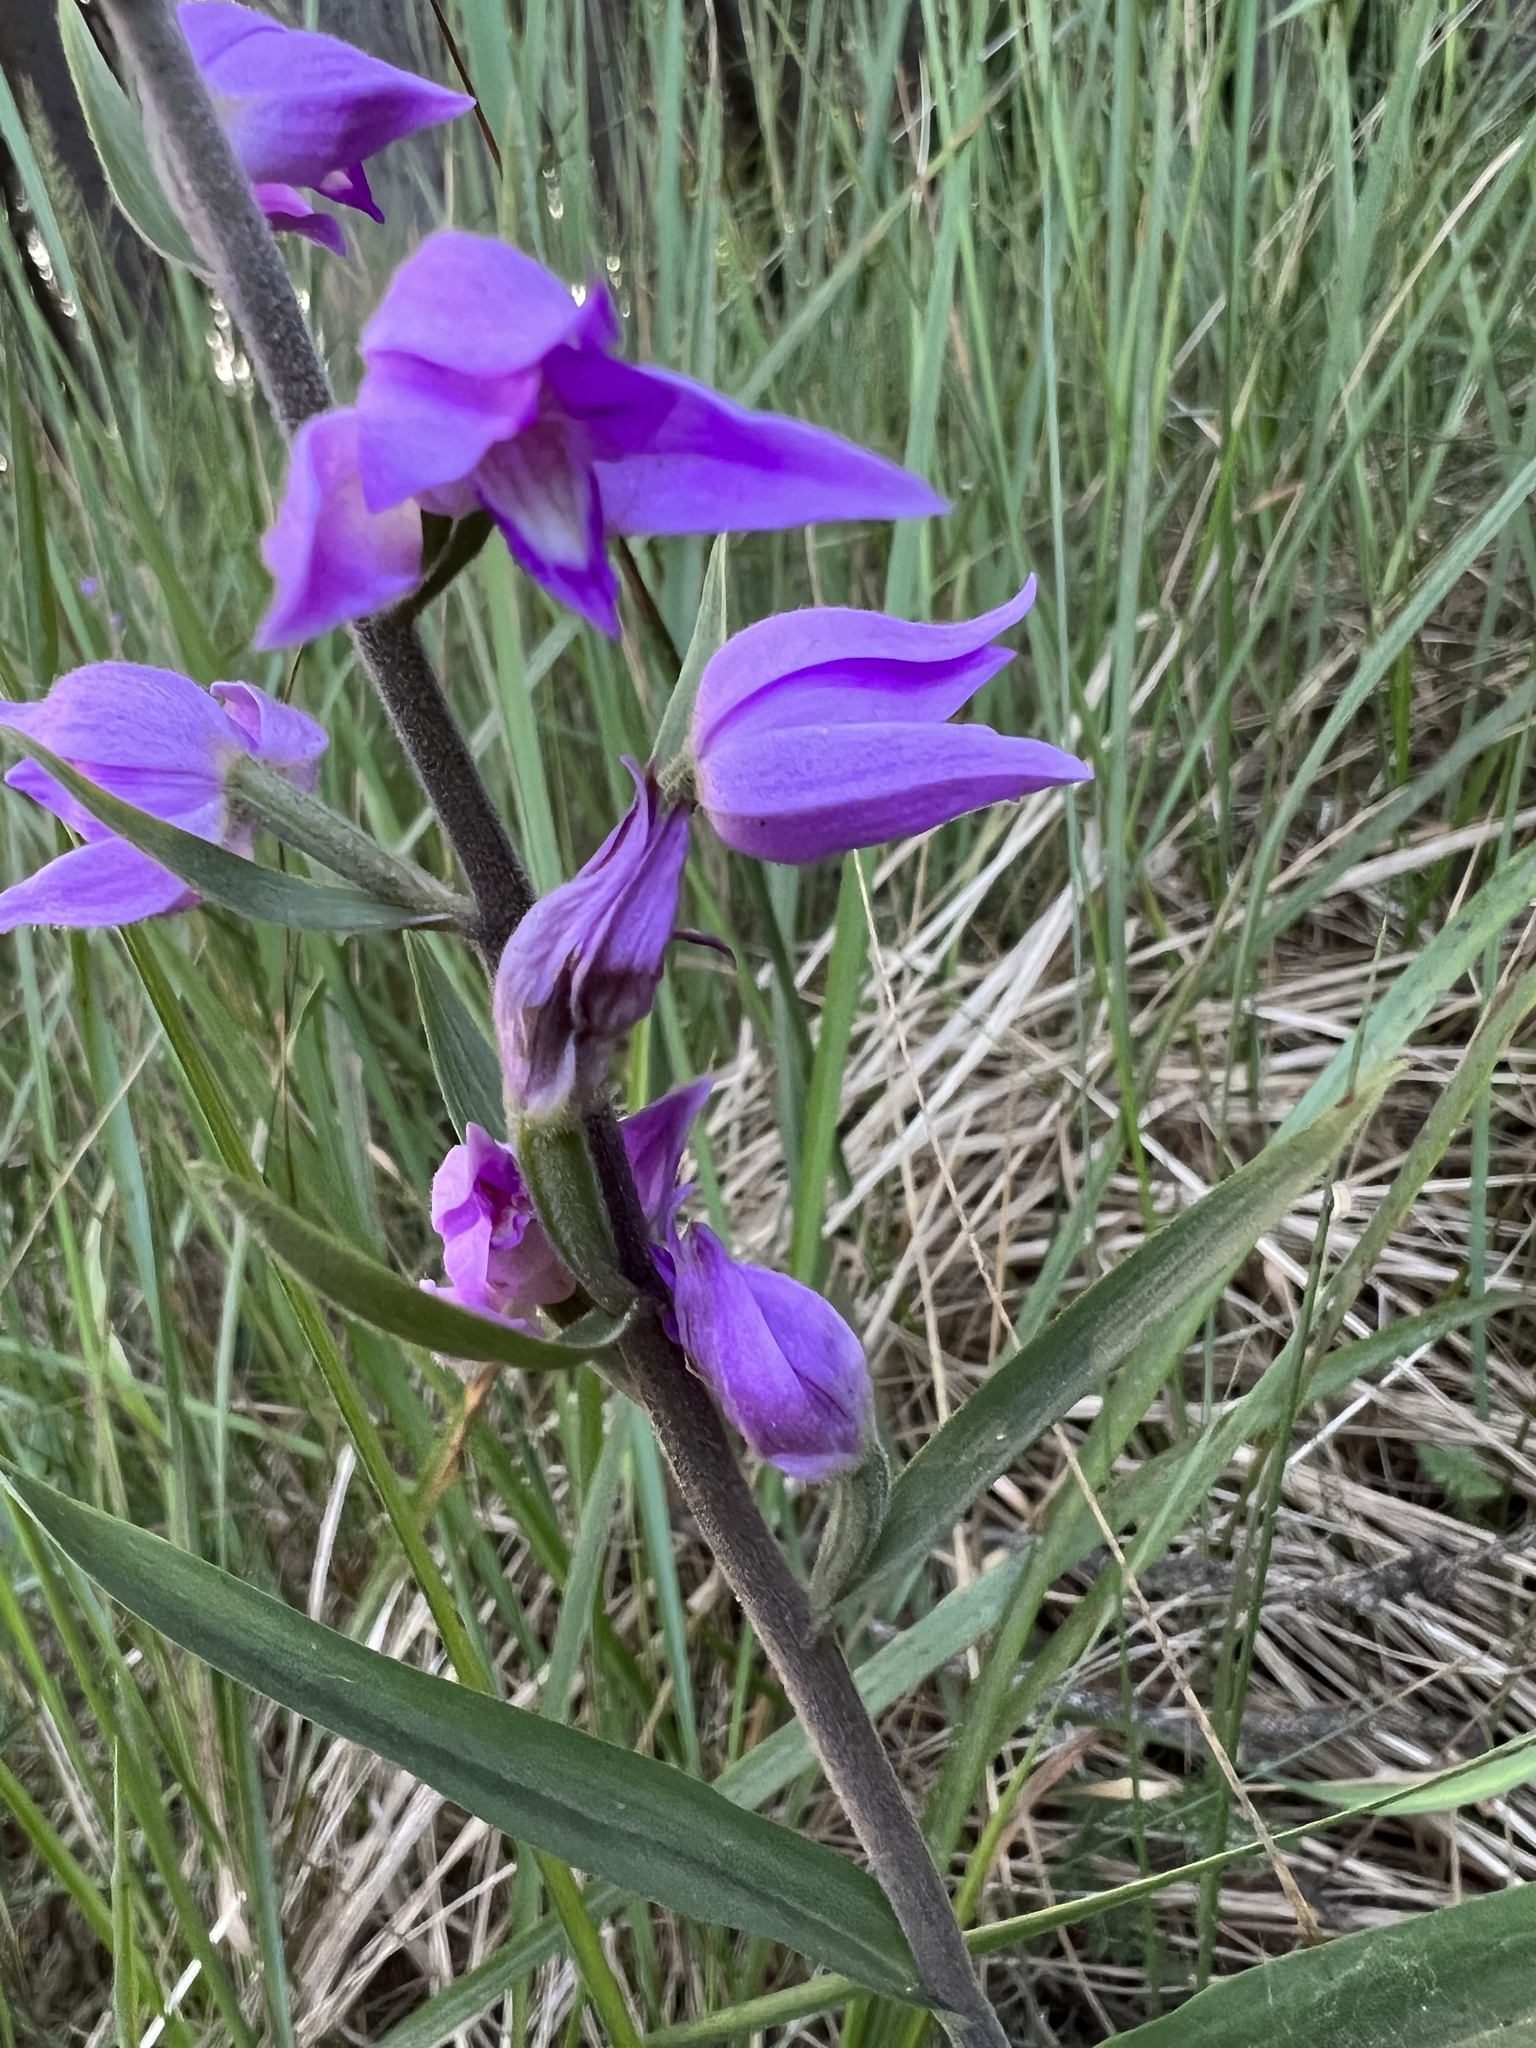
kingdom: Plantae
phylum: Tracheophyta
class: Liliopsida
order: Asparagales
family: Orchidaceae
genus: Cephalanthera
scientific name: Cephalanthera rubra
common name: Red helleborine
